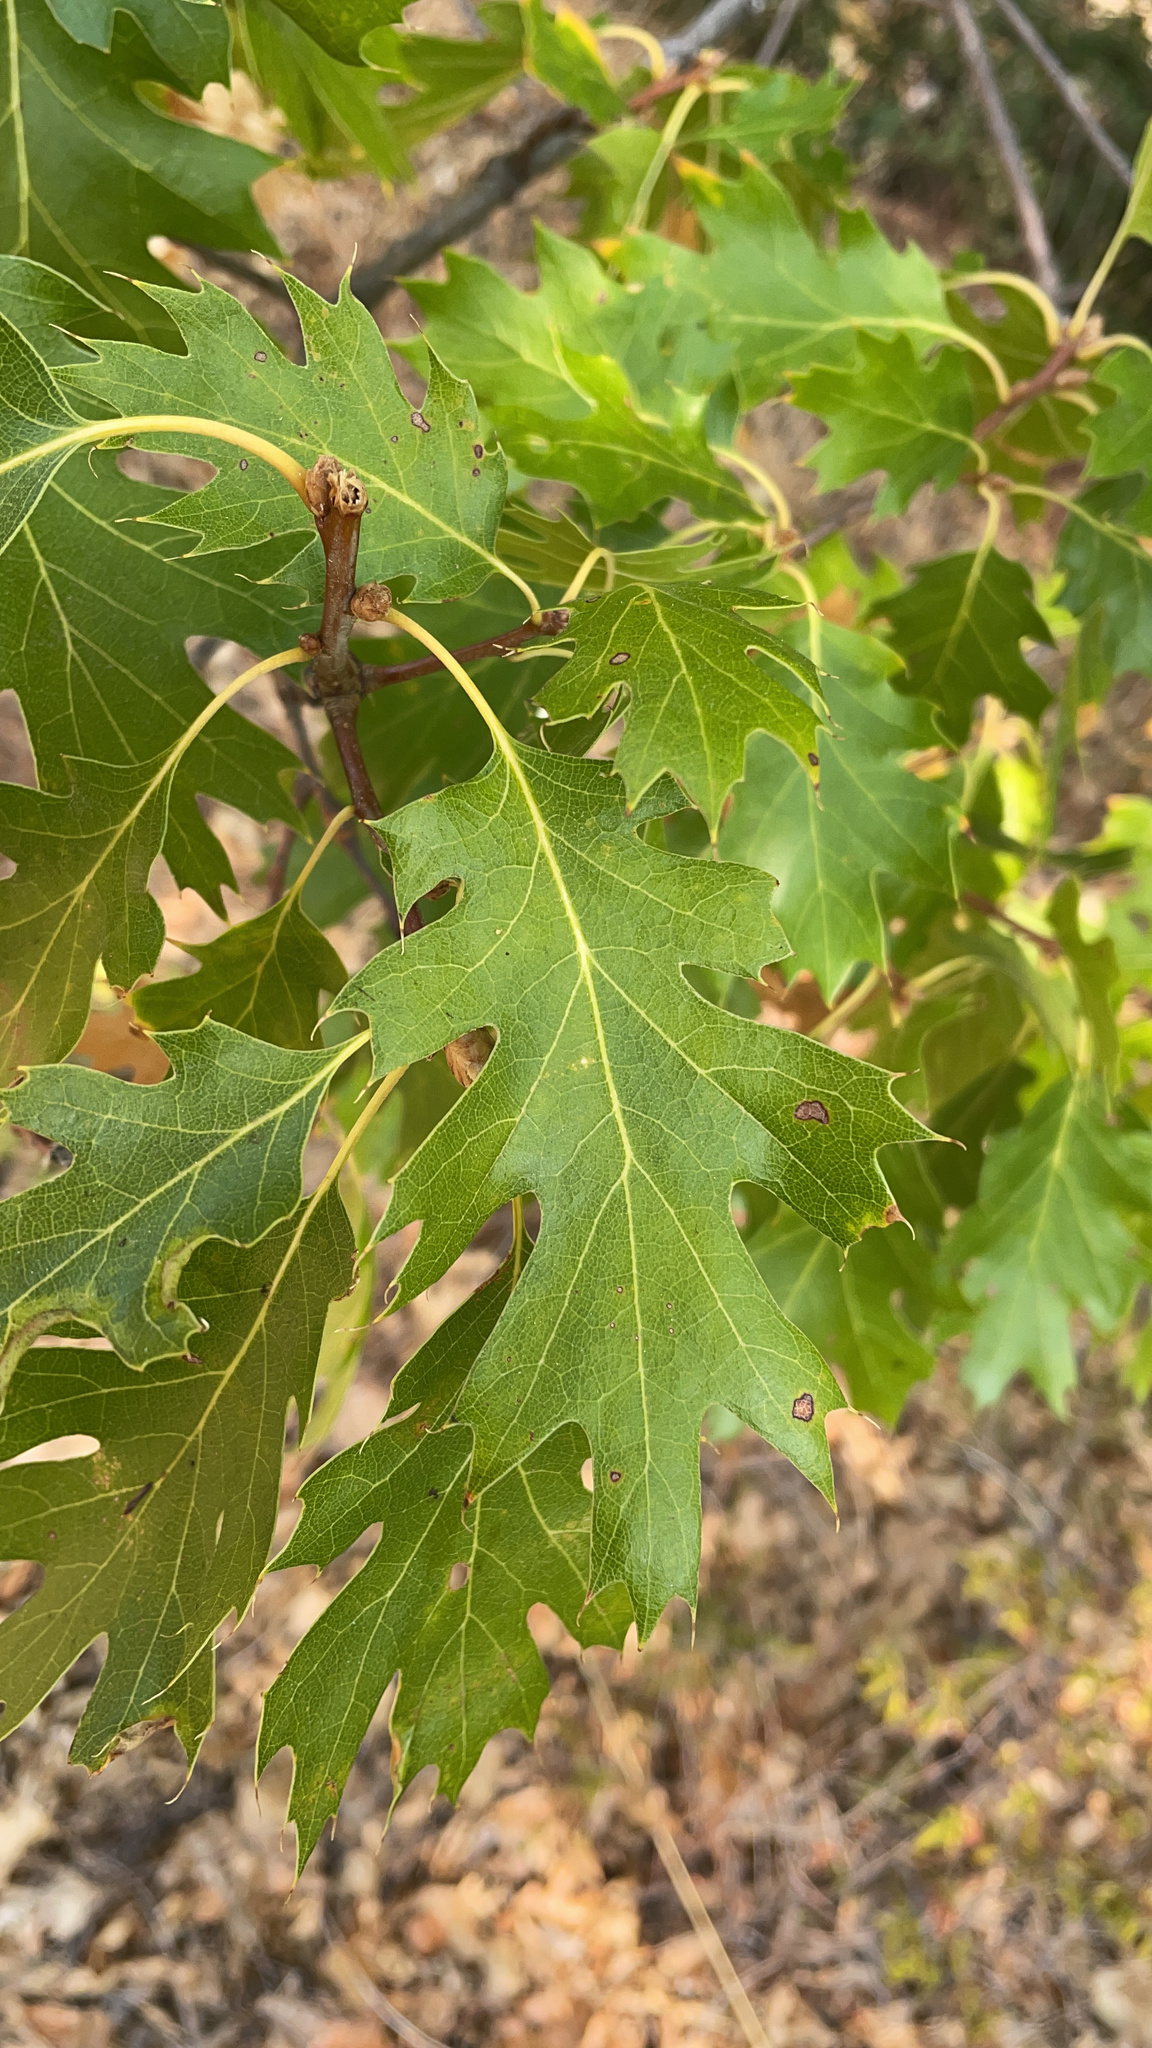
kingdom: Plantae
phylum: Tracheophyta
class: Magnoliopsida
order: Fagales
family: Fagaceae
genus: Quercus
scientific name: Quercus kelloggii
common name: California black oak
